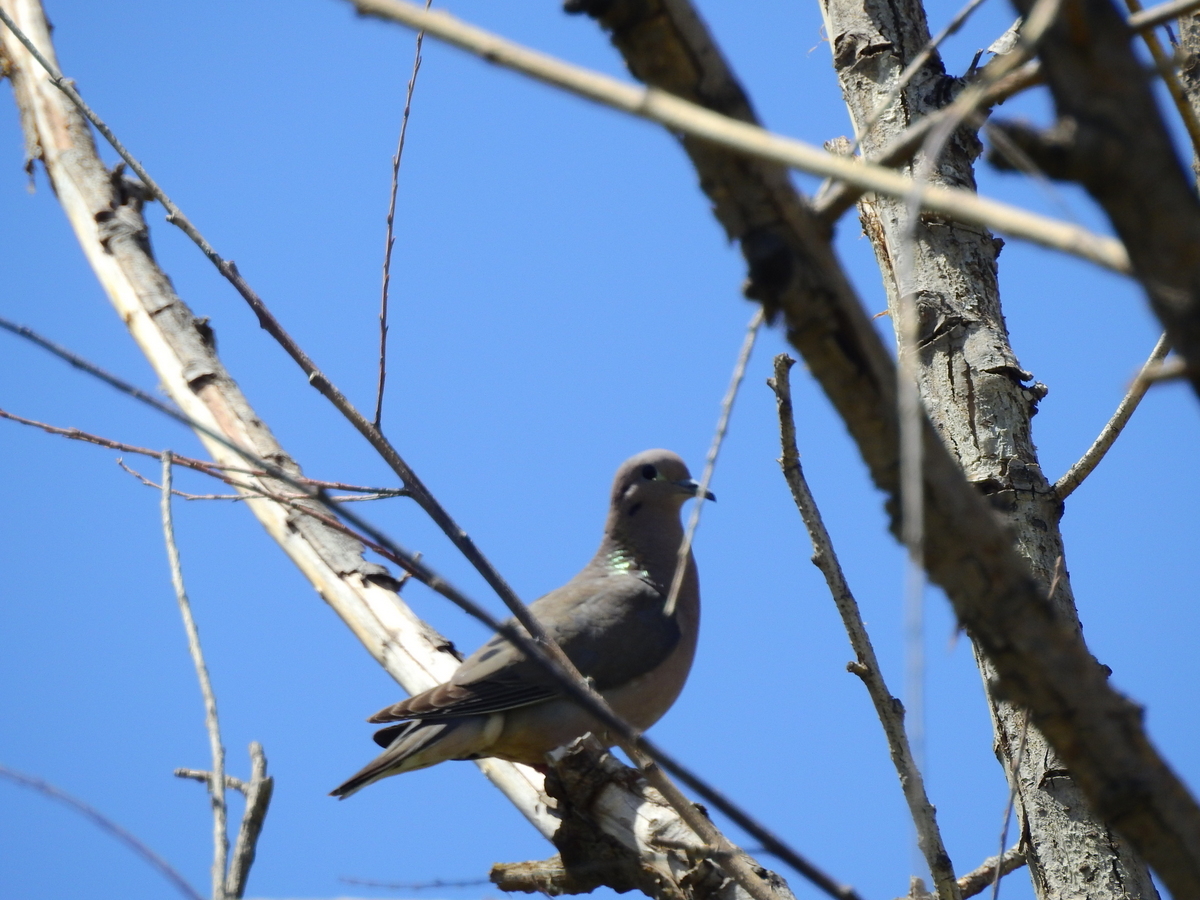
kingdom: Animalia
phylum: Chordata
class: Aves
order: Columbiformes
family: Columbidae
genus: Zenaida
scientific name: Zenaida auriculata
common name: Eared dove
